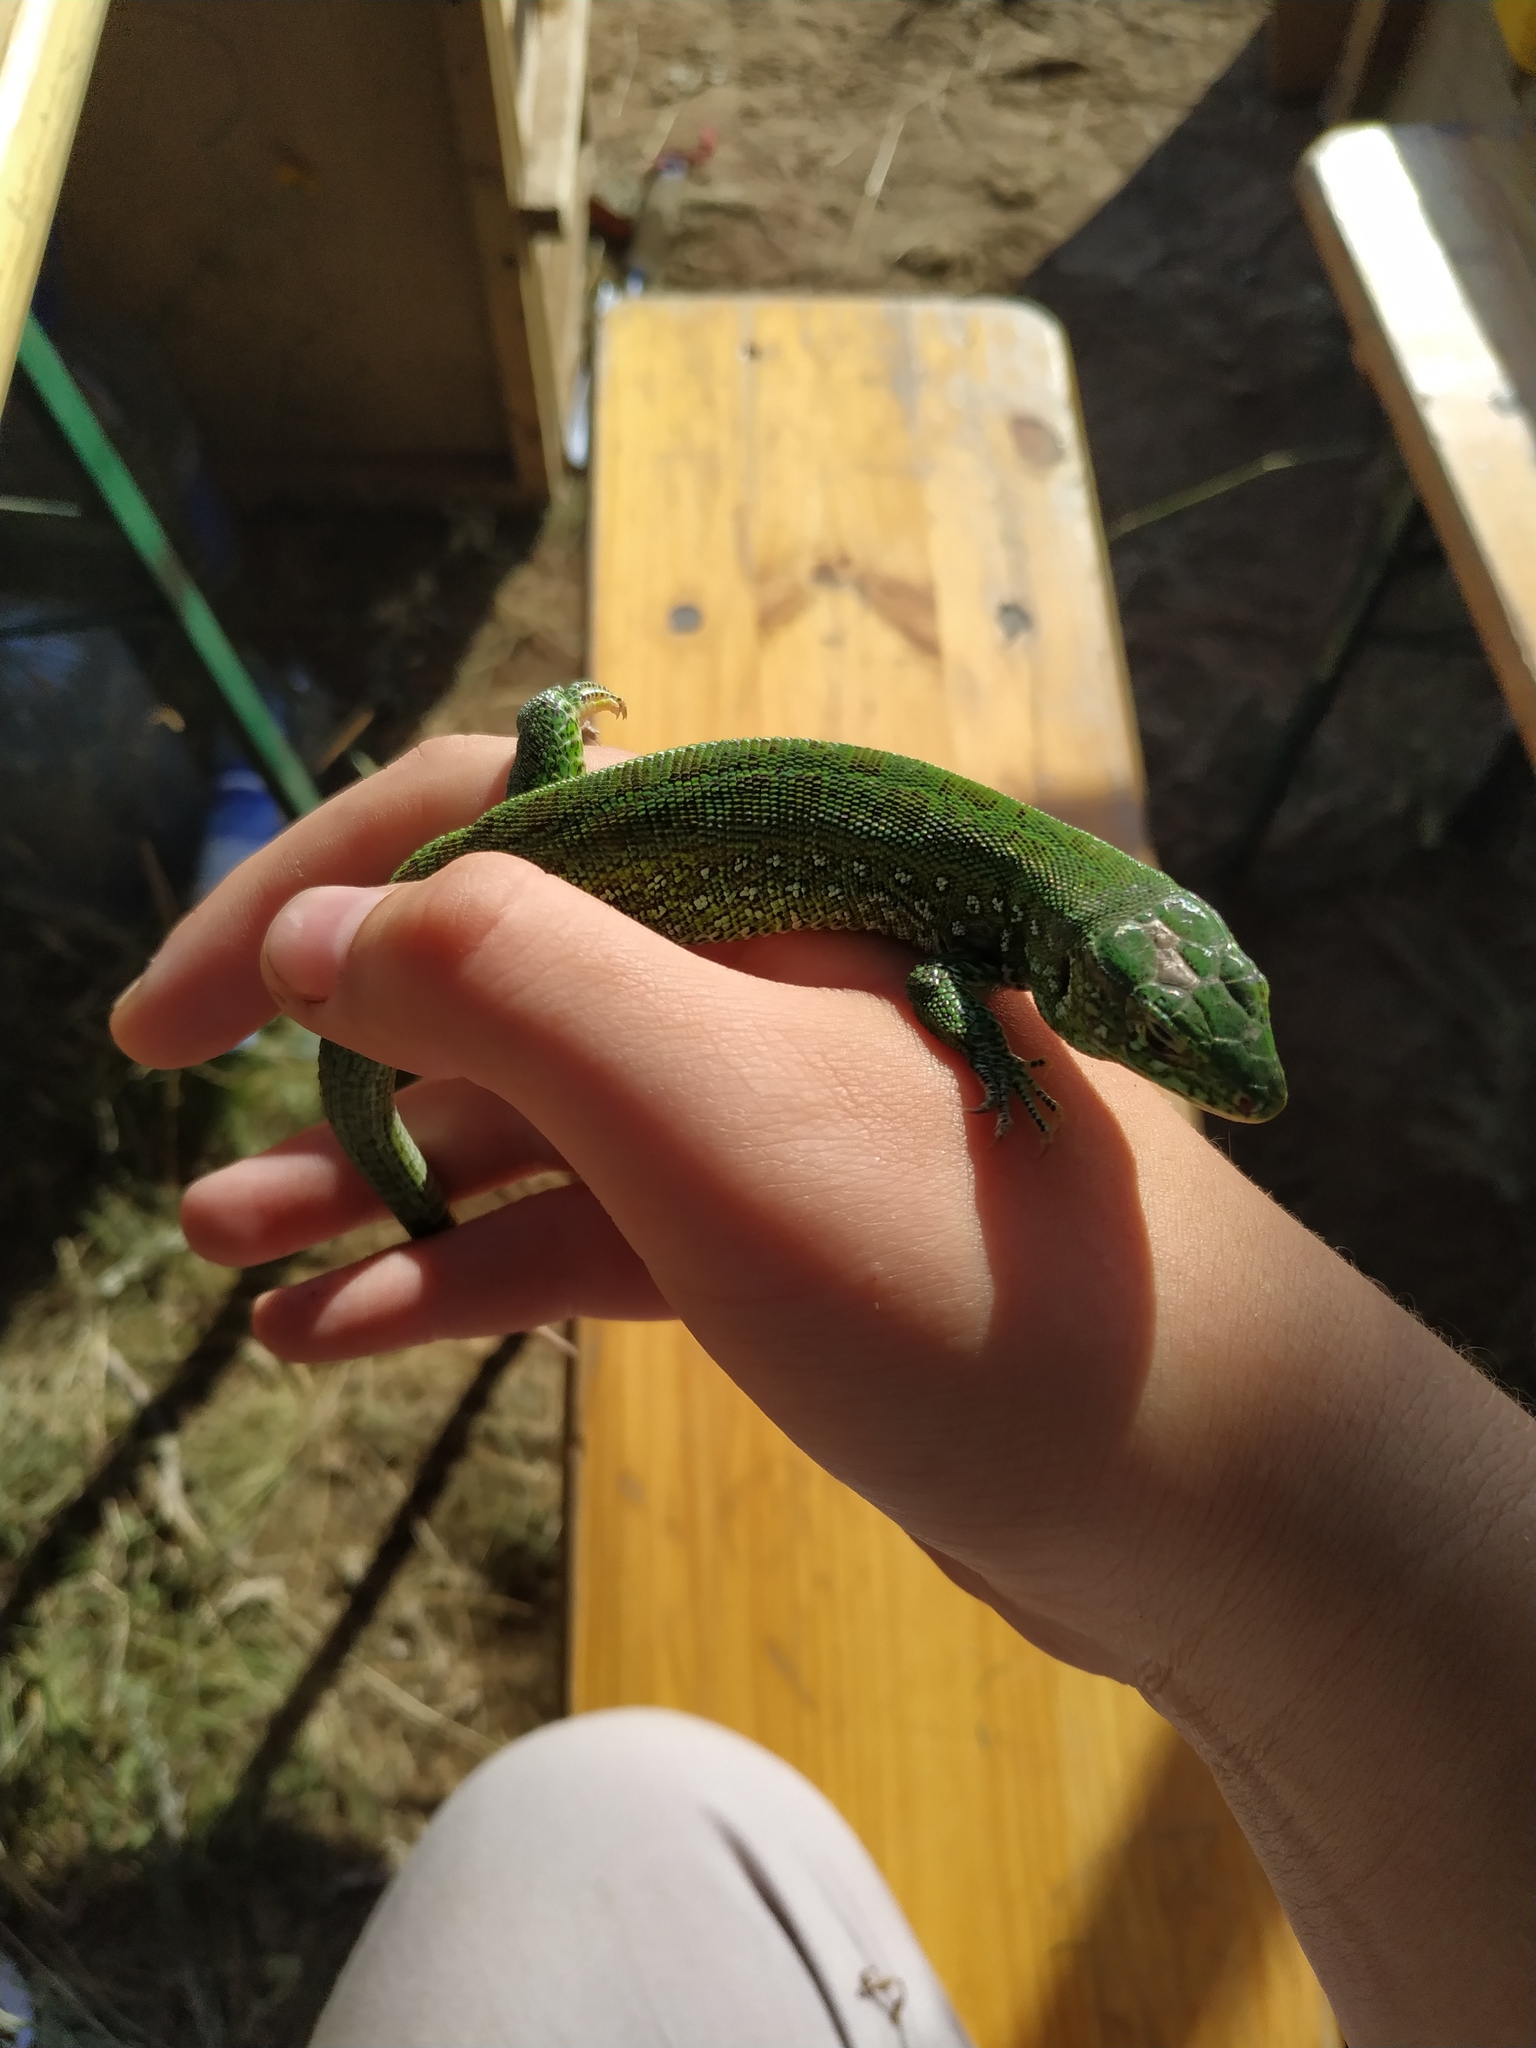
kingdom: Animalia
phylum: Chordata
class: Squamata
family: Lacertidae
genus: Lacerta
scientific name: Lacerta agilis
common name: Sand lizard
